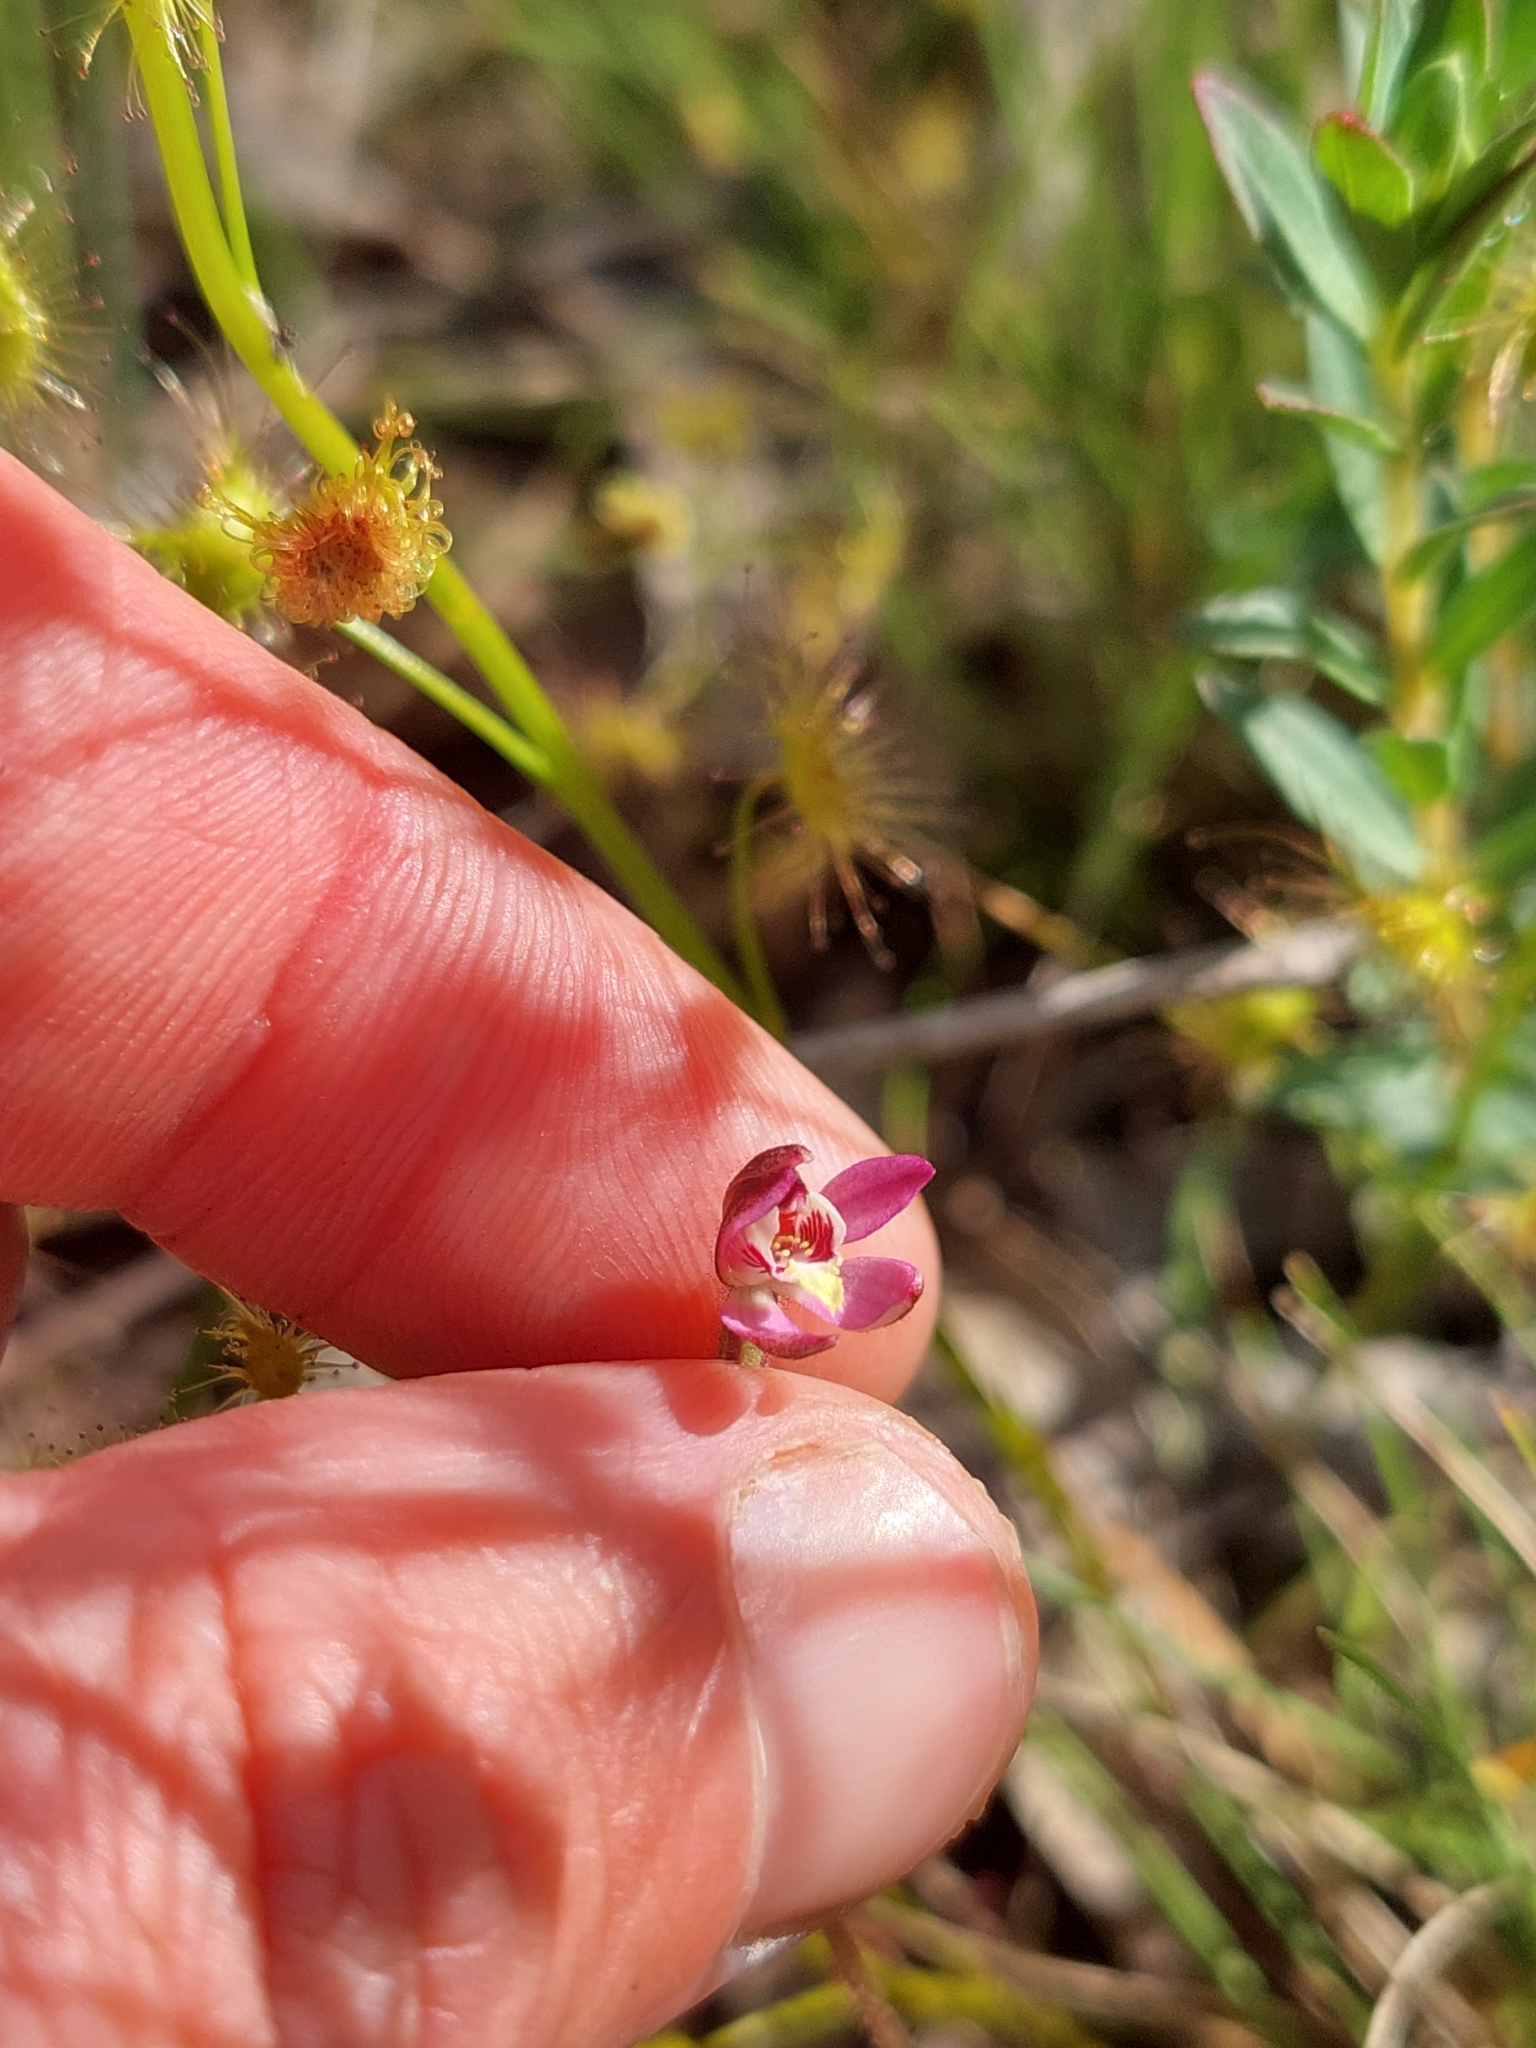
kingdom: Plantae
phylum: Tracheophyta
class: Liliopsida
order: Asparagales
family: Orchidaceae
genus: Caladenia
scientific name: Caladenia pusilla
